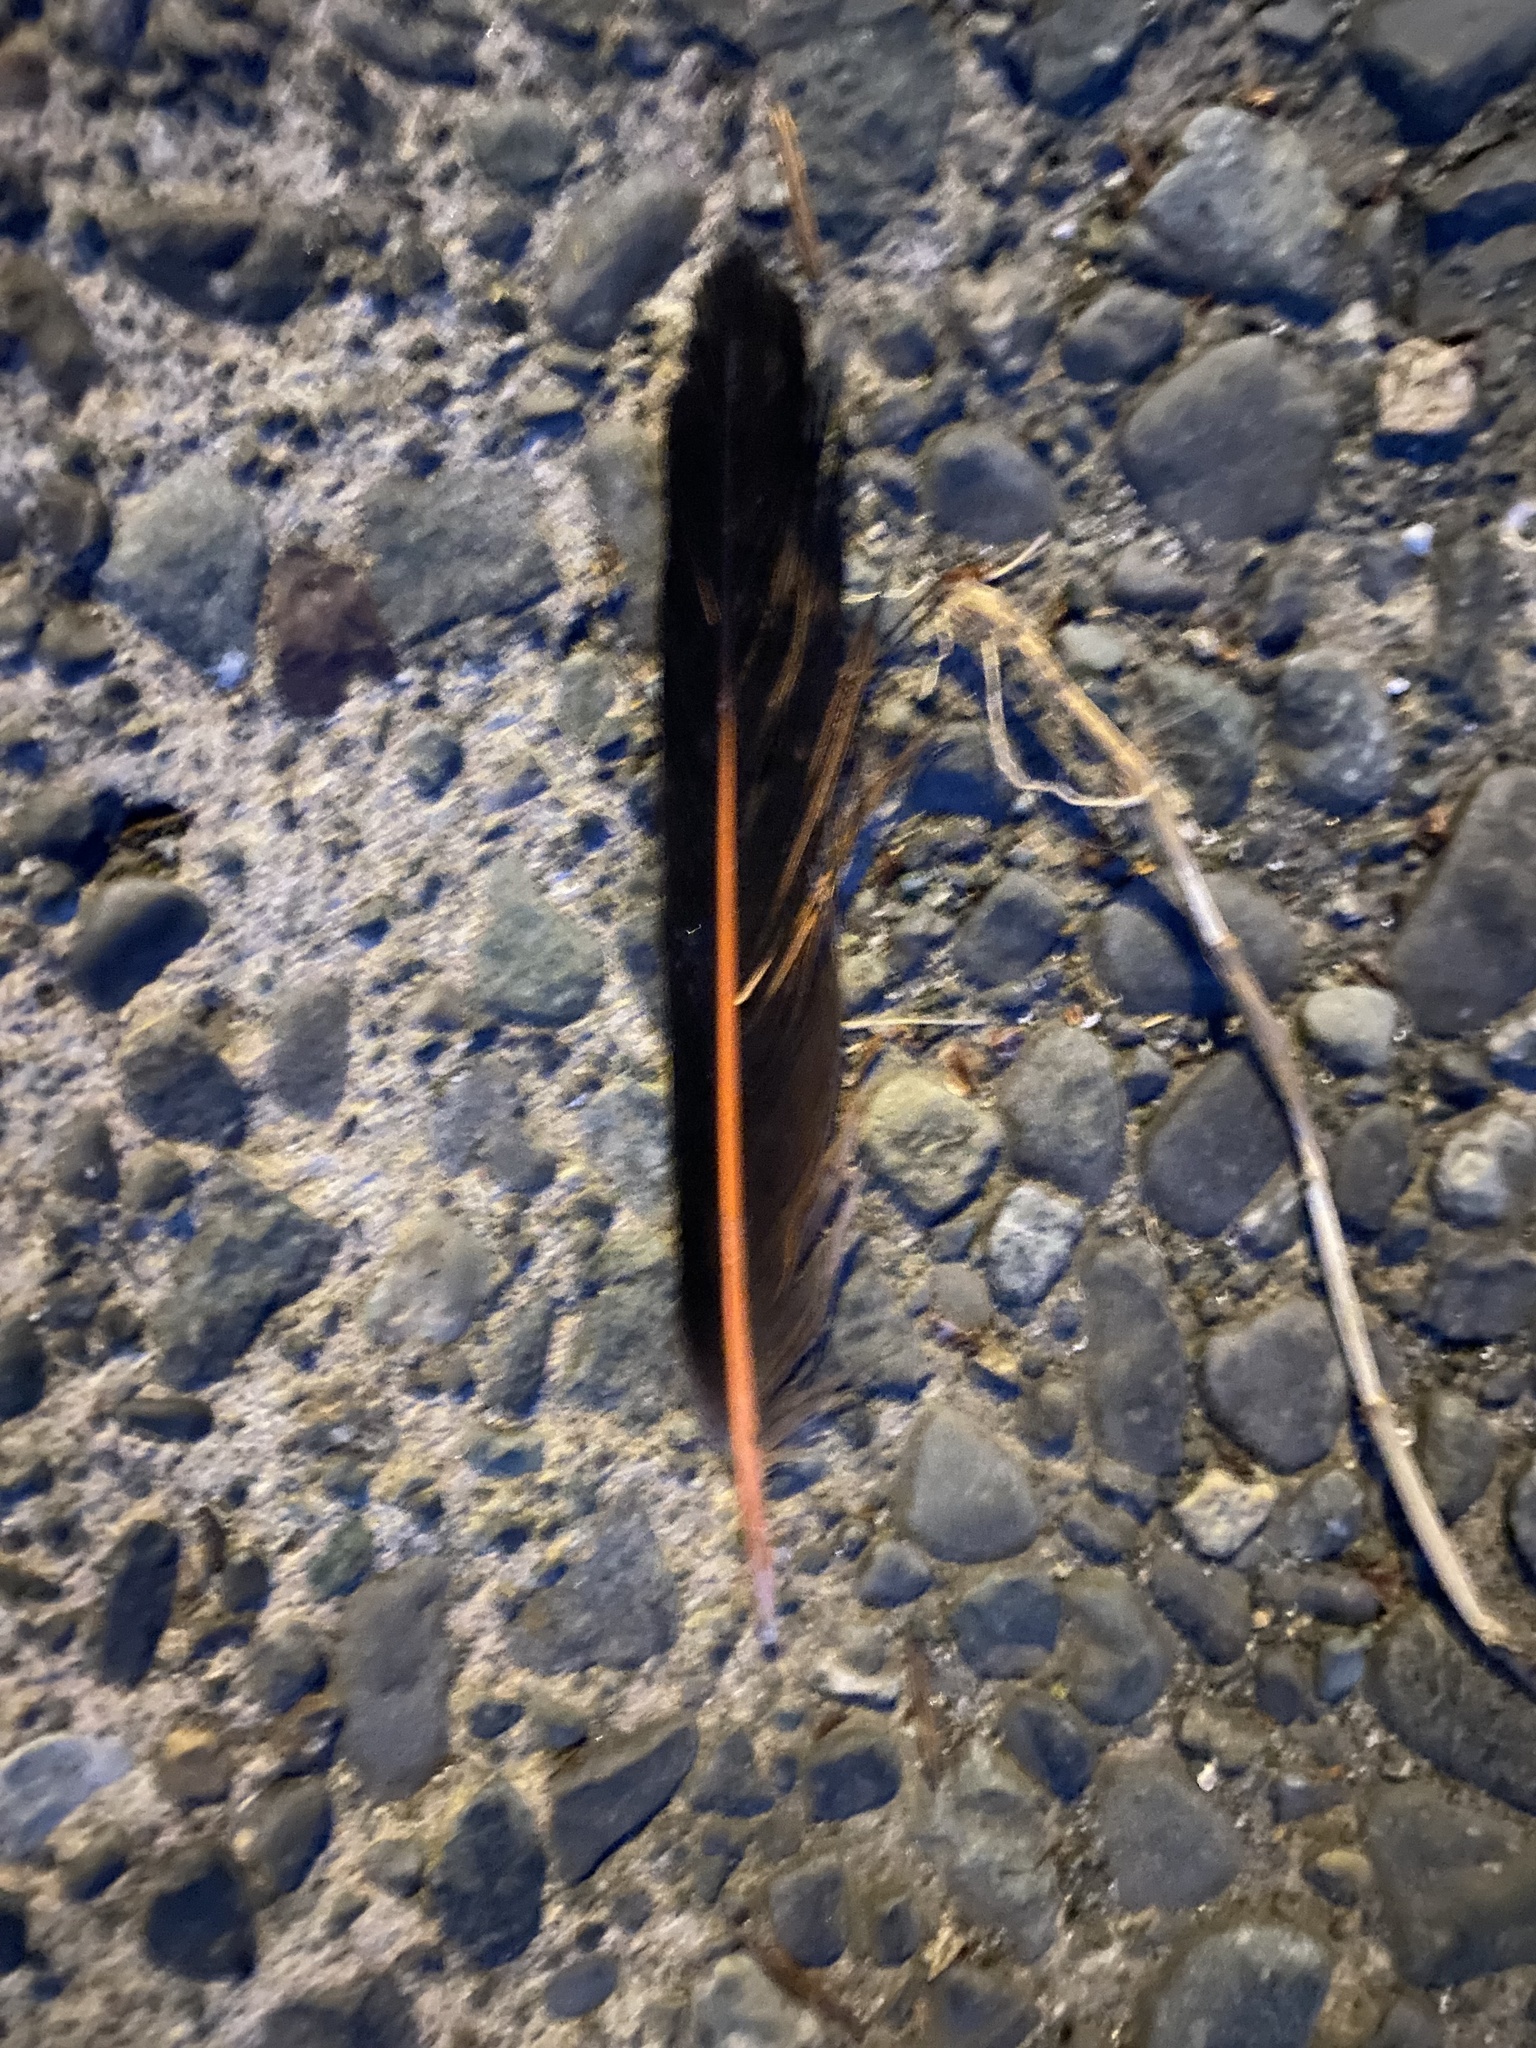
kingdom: Animalia
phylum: Chordata
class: Aves
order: Piciformes
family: Picidae
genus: Colaptes
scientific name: Colaptes auratus
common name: Northern flicker
